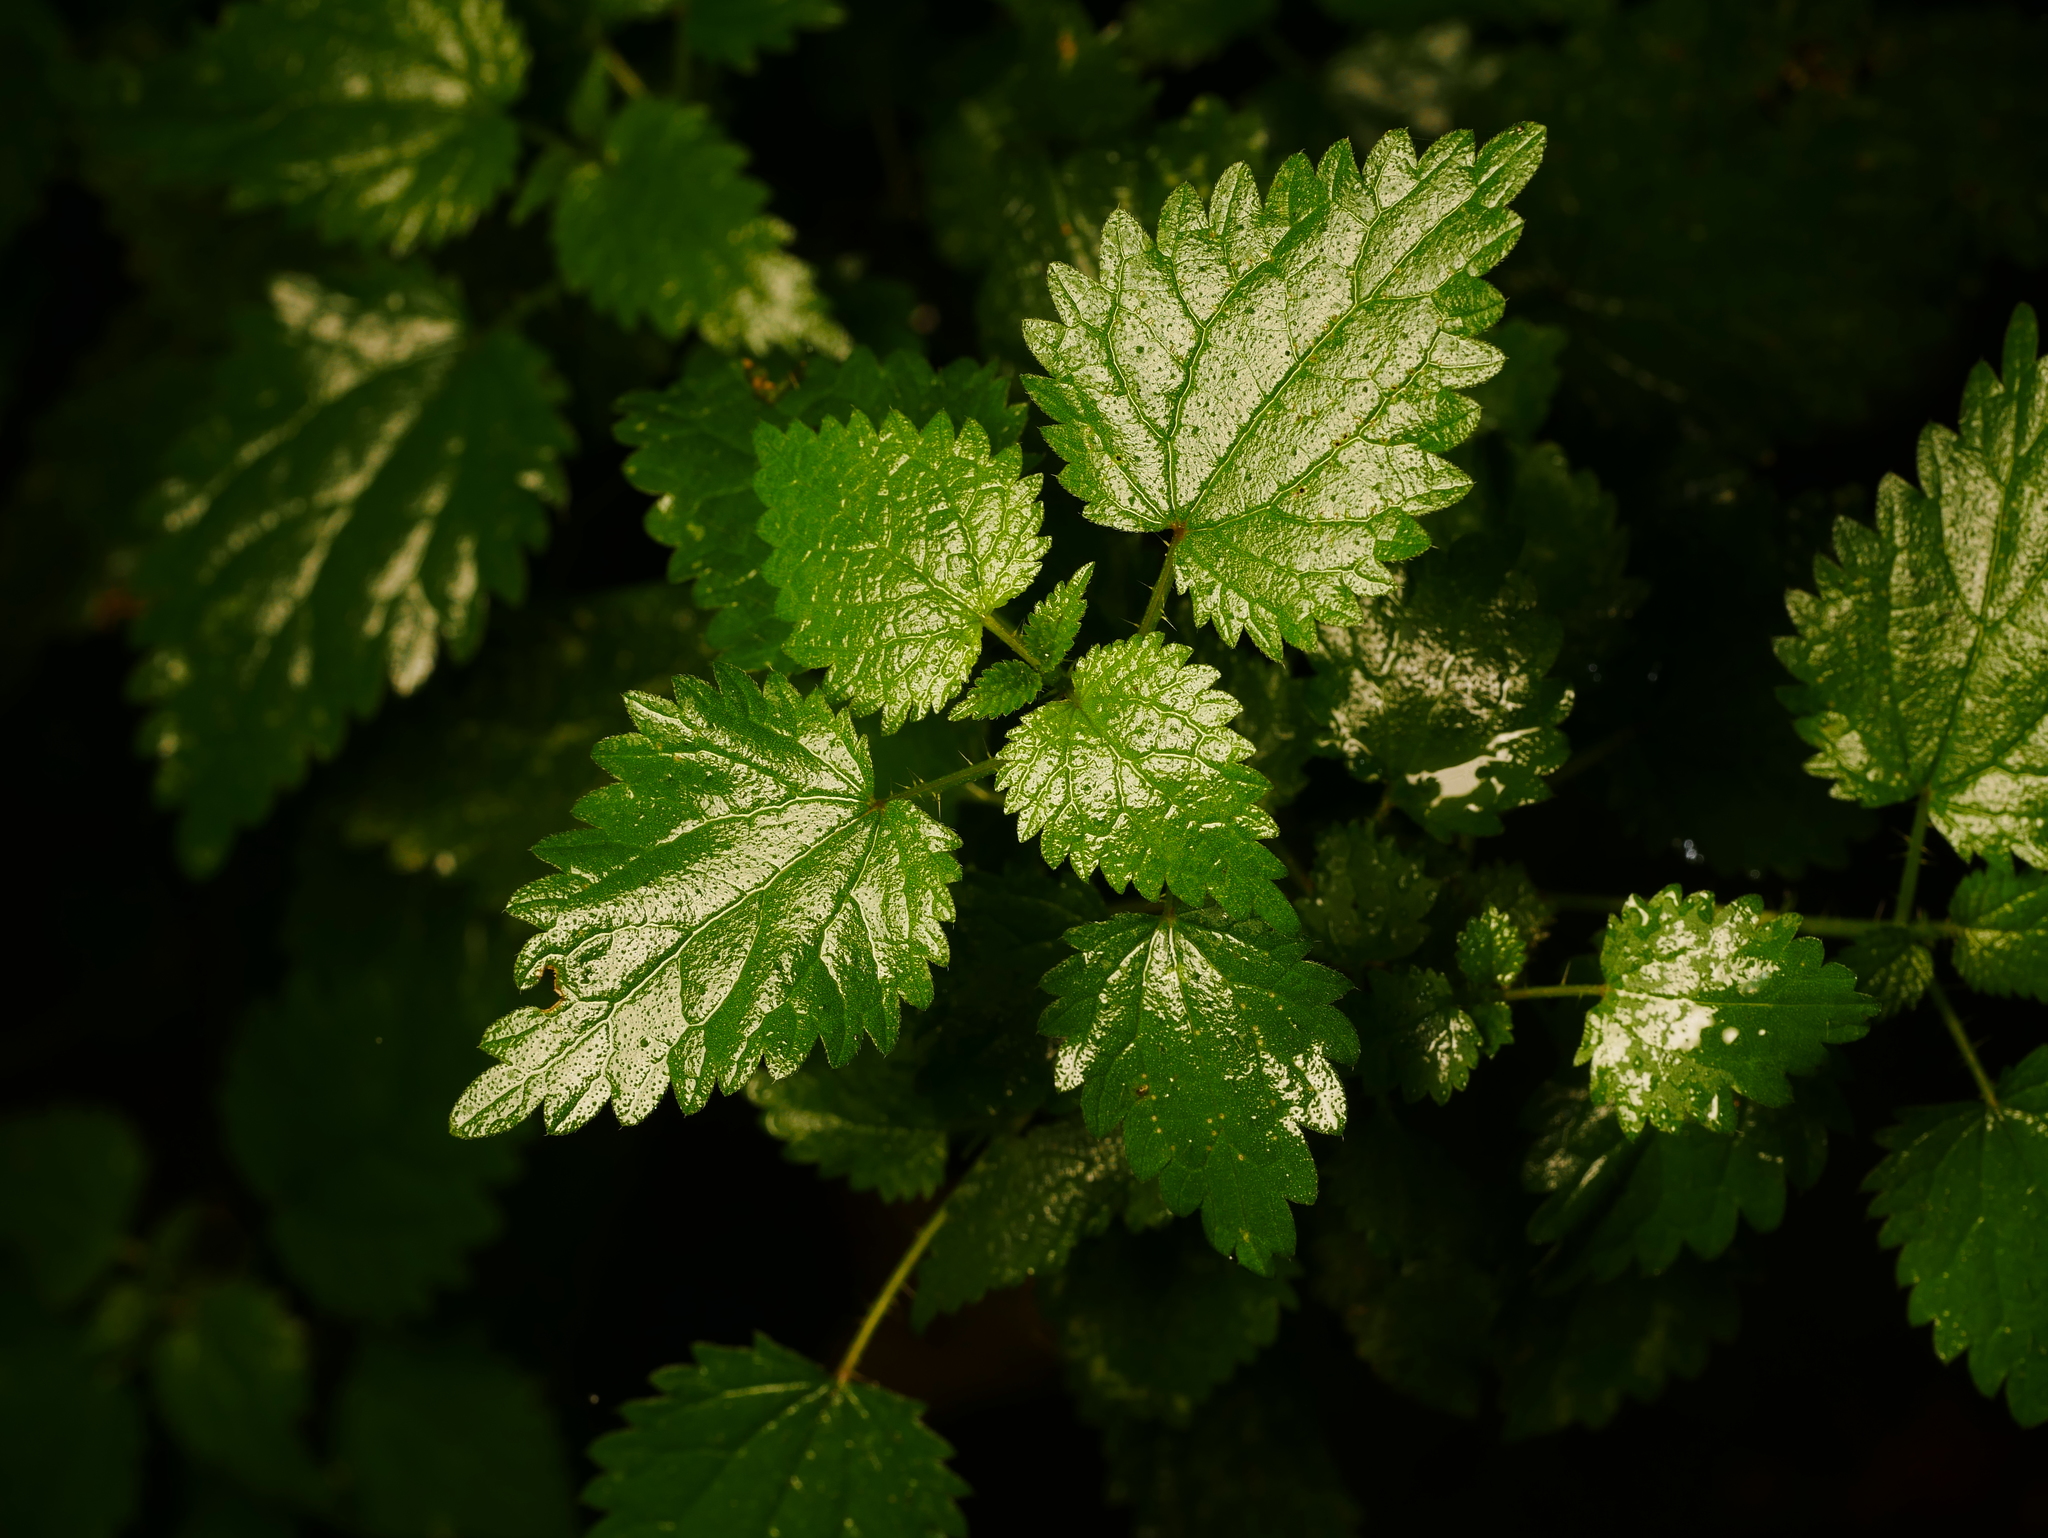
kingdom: Plantae
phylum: Tracheophyta
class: Magnoliopsida
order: Rosales
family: Urticaceae
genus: Urtica
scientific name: Urtica dioica
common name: Common nettle
